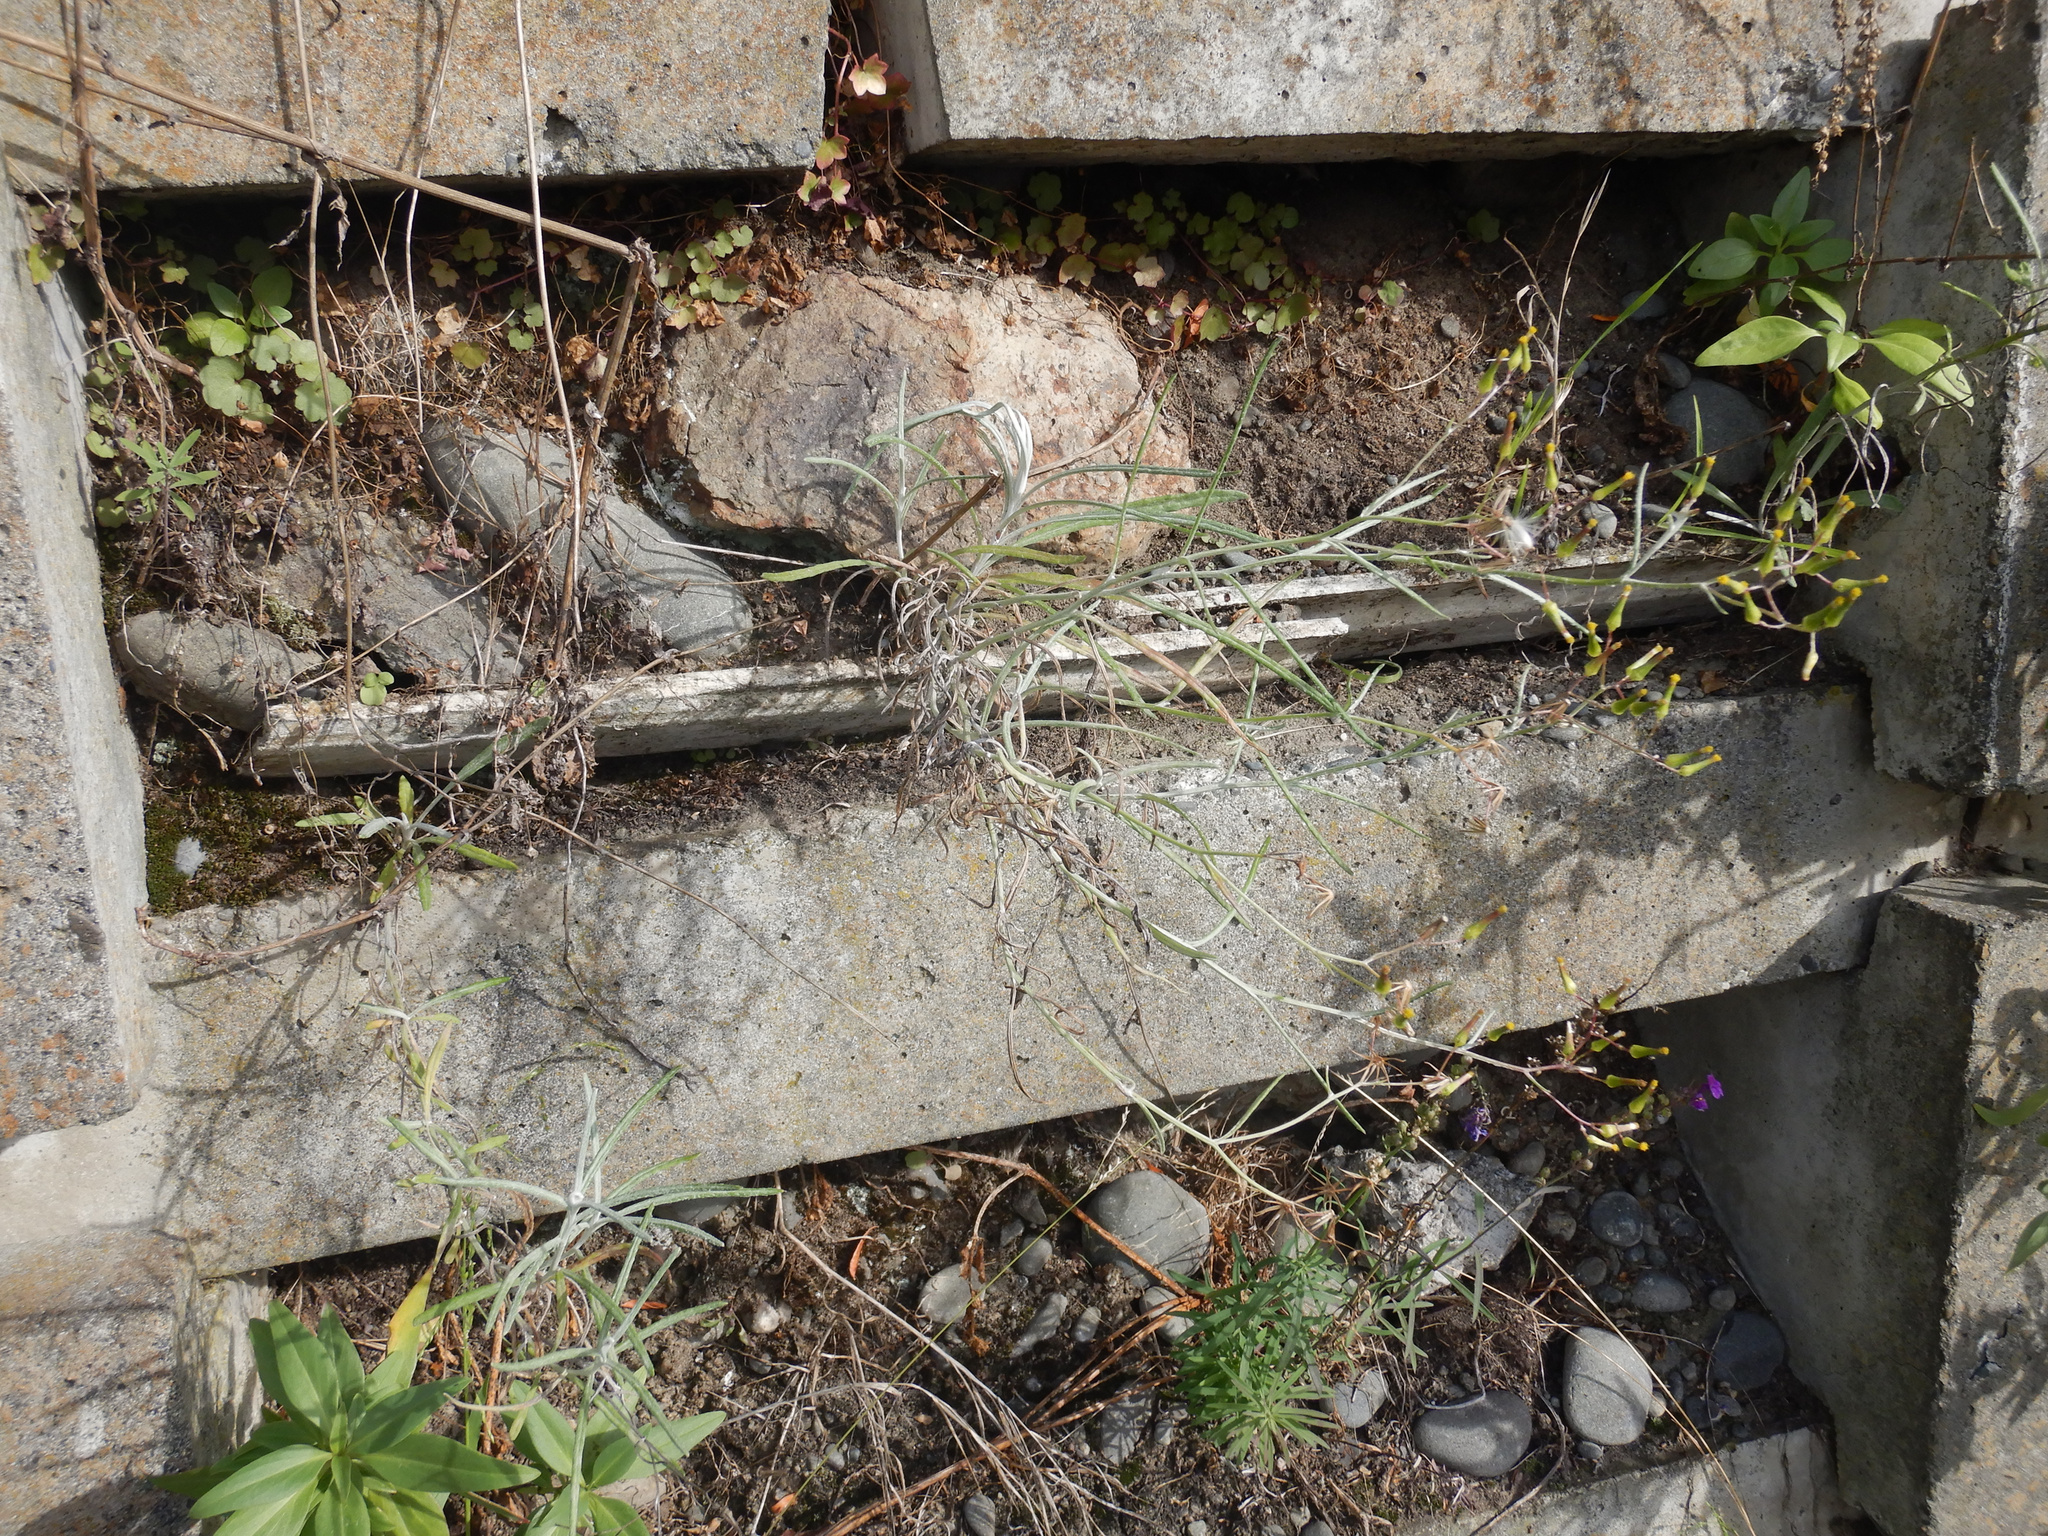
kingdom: Plantae
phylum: Tracheophyta
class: Magnoliopsida
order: Asterales
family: Asteraceae
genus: Senecio
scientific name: Senecio quadridentatus
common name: Cotton fireweed
